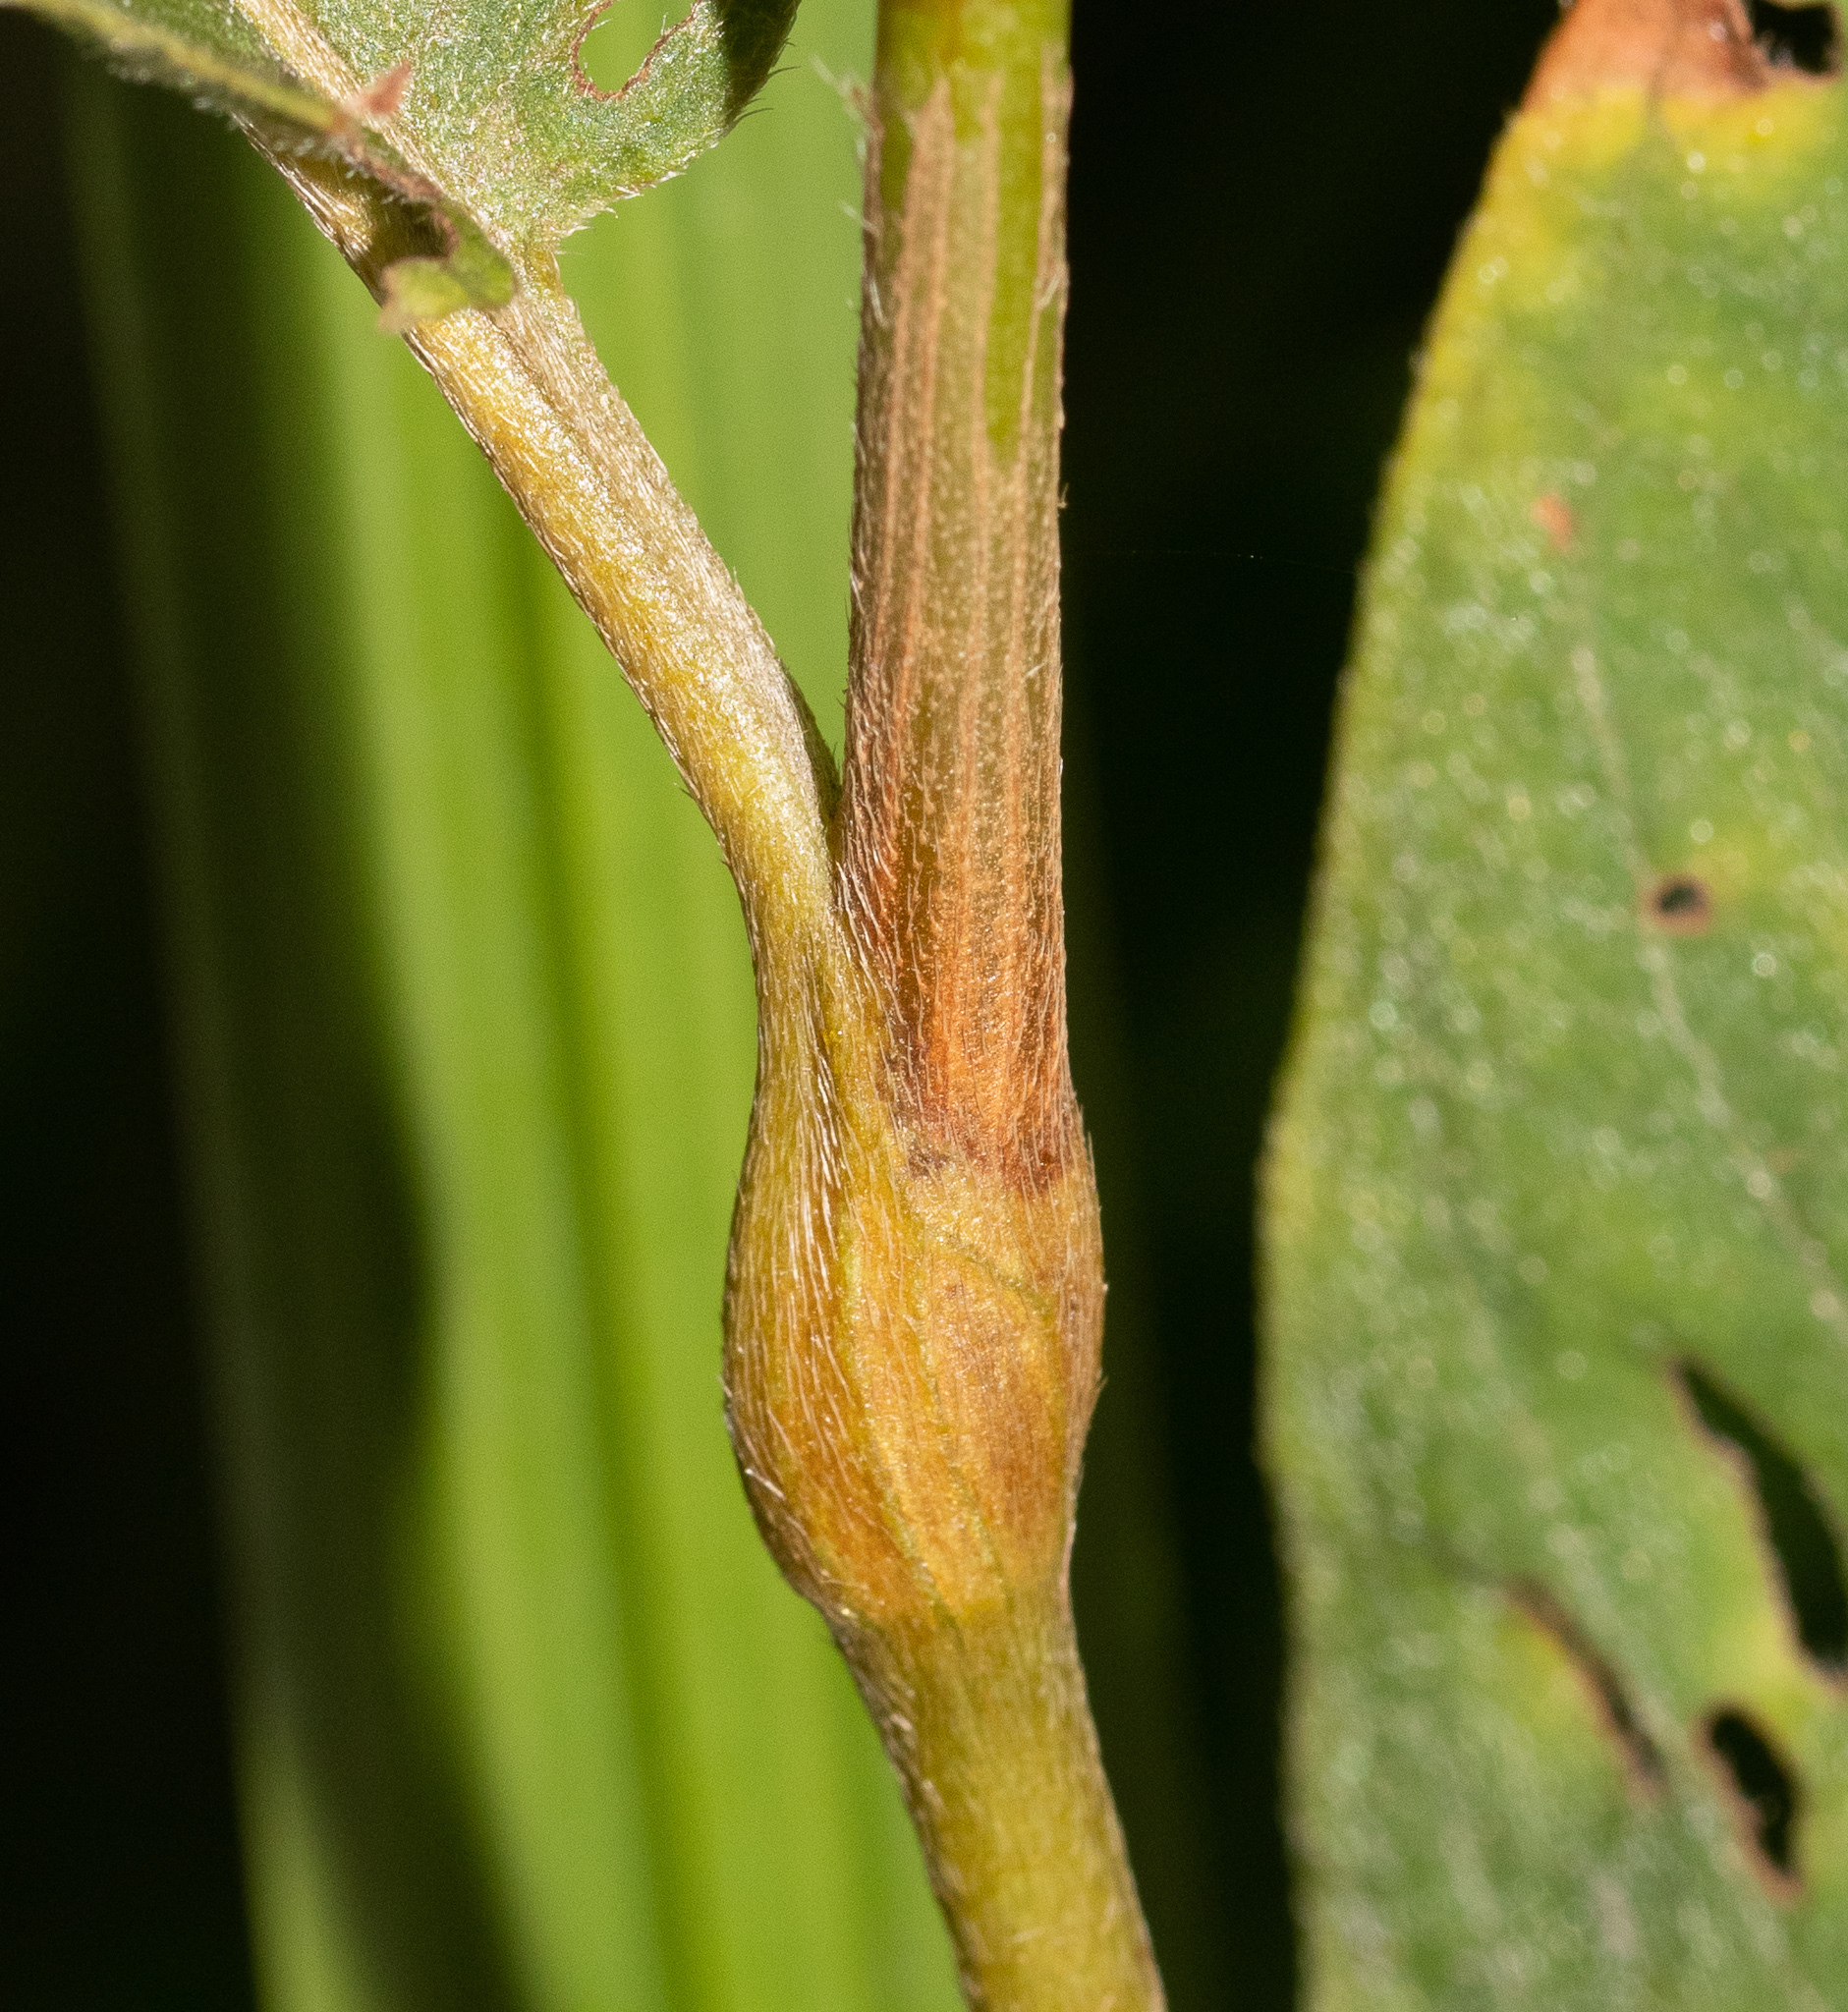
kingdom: Plantae
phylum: Tracheophyta
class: Magnoliopsida
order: Caryophyllales
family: Polygonaceae
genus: Persicaria
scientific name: Persicaria amphibia
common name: Amphibious bistort
